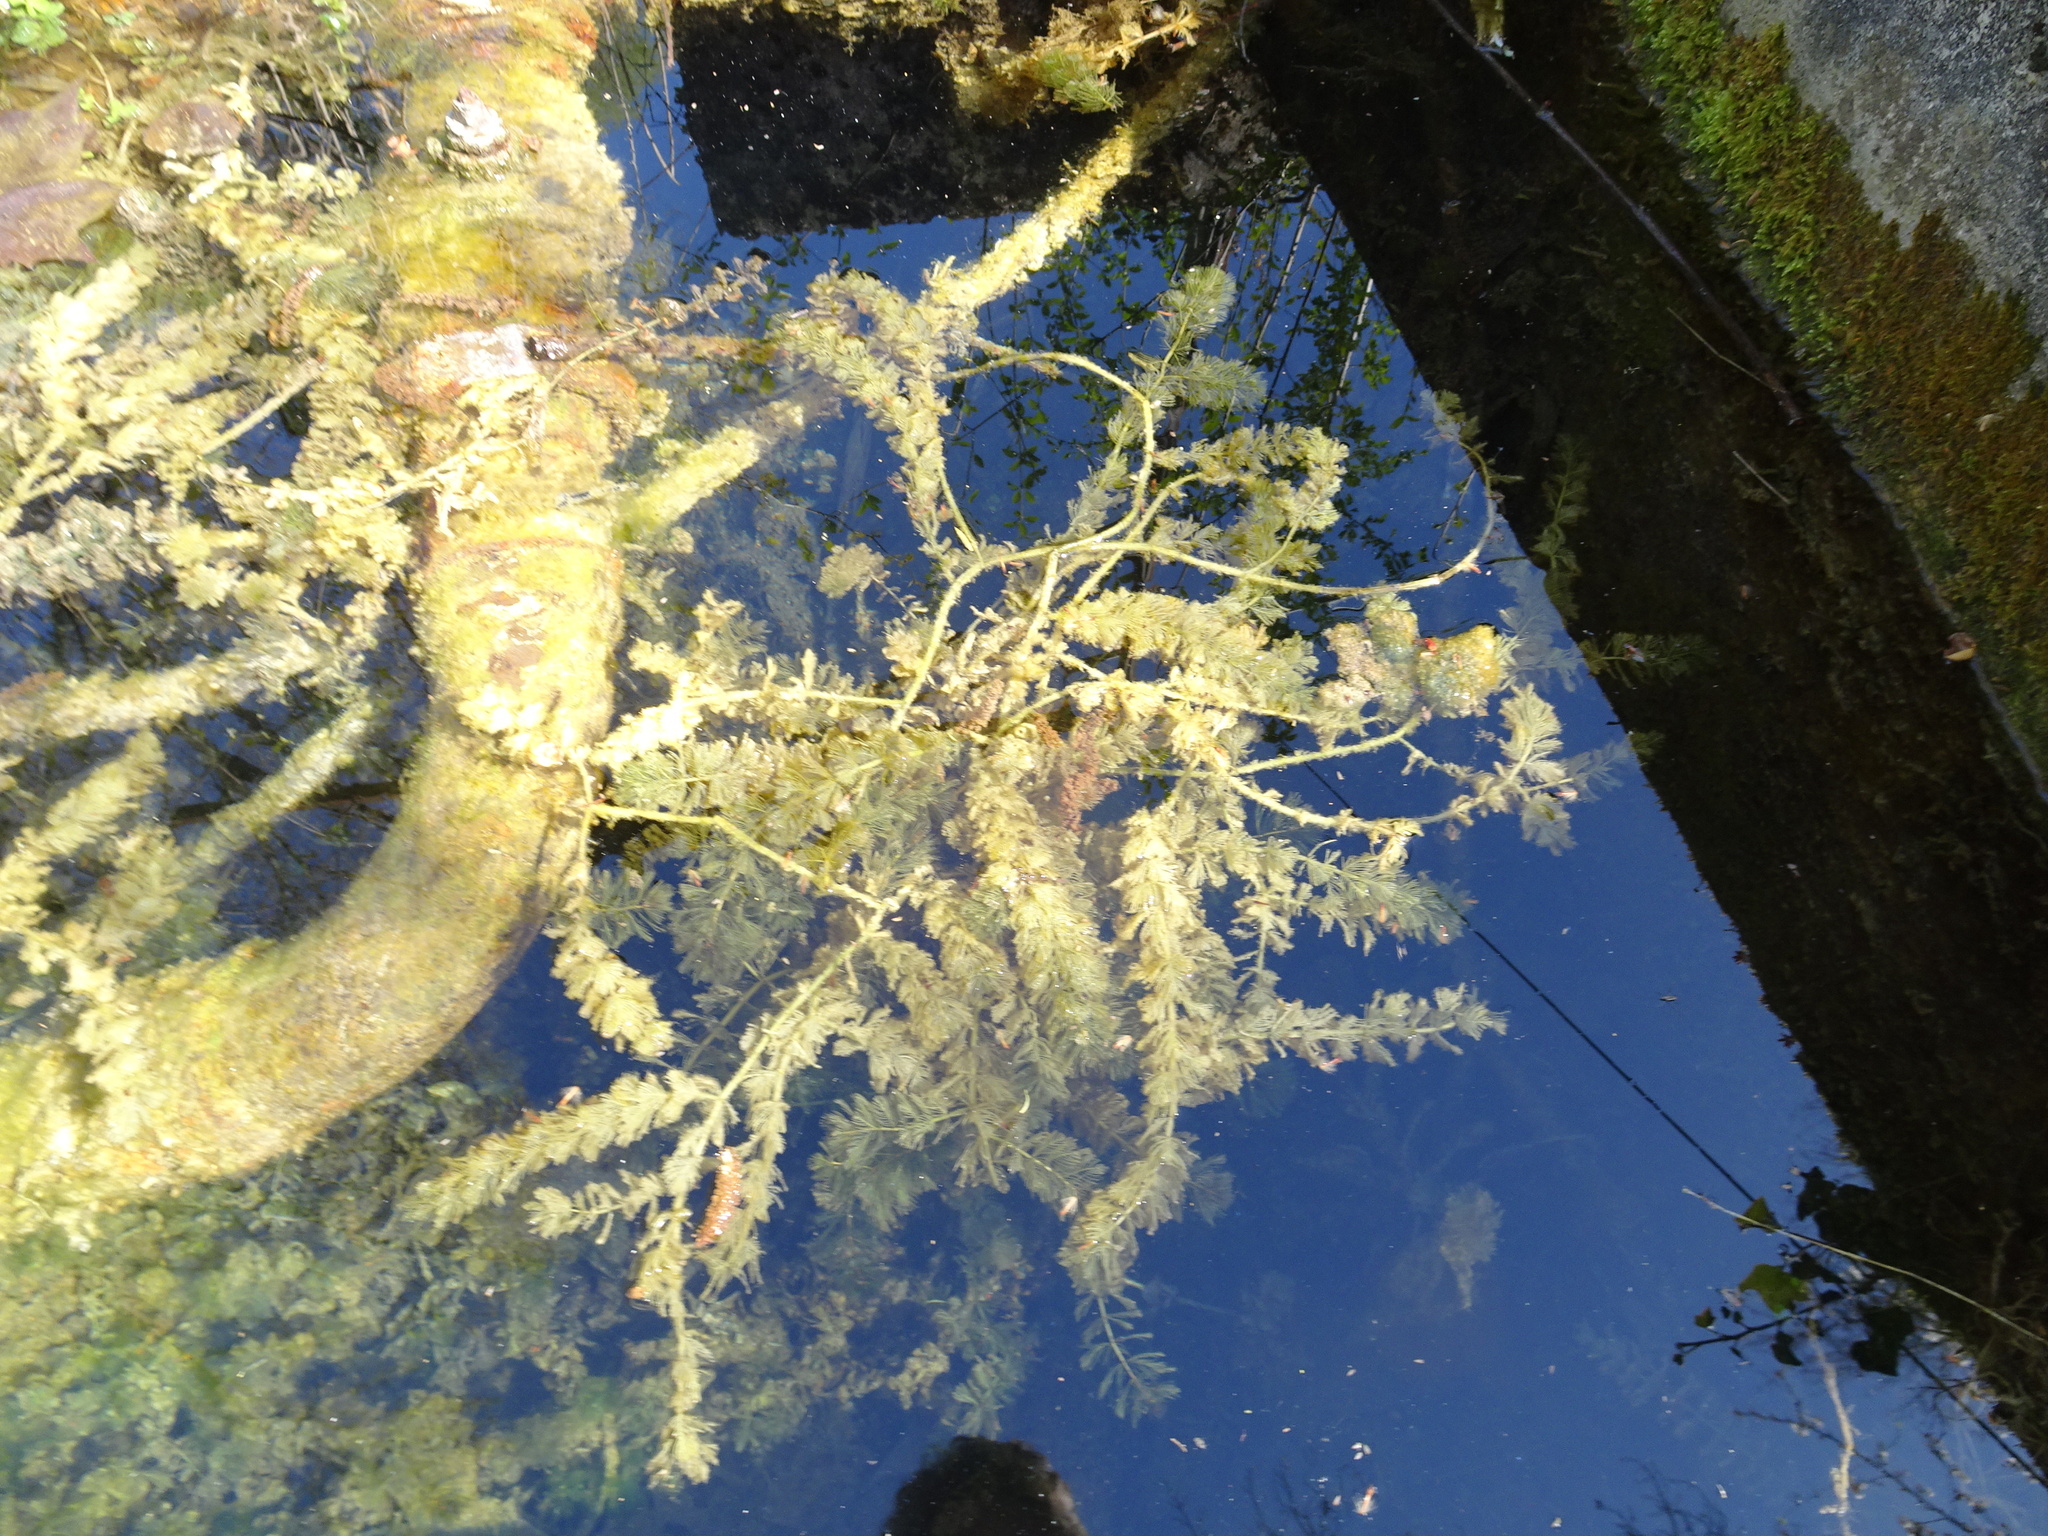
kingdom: Plantae
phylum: Tracheophyta
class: Magnoliopsida
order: Saxifragales
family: Haloragaceae
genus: Myriophyllum
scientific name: Myriophyllum spicatum
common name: Spiked water-milfoil
